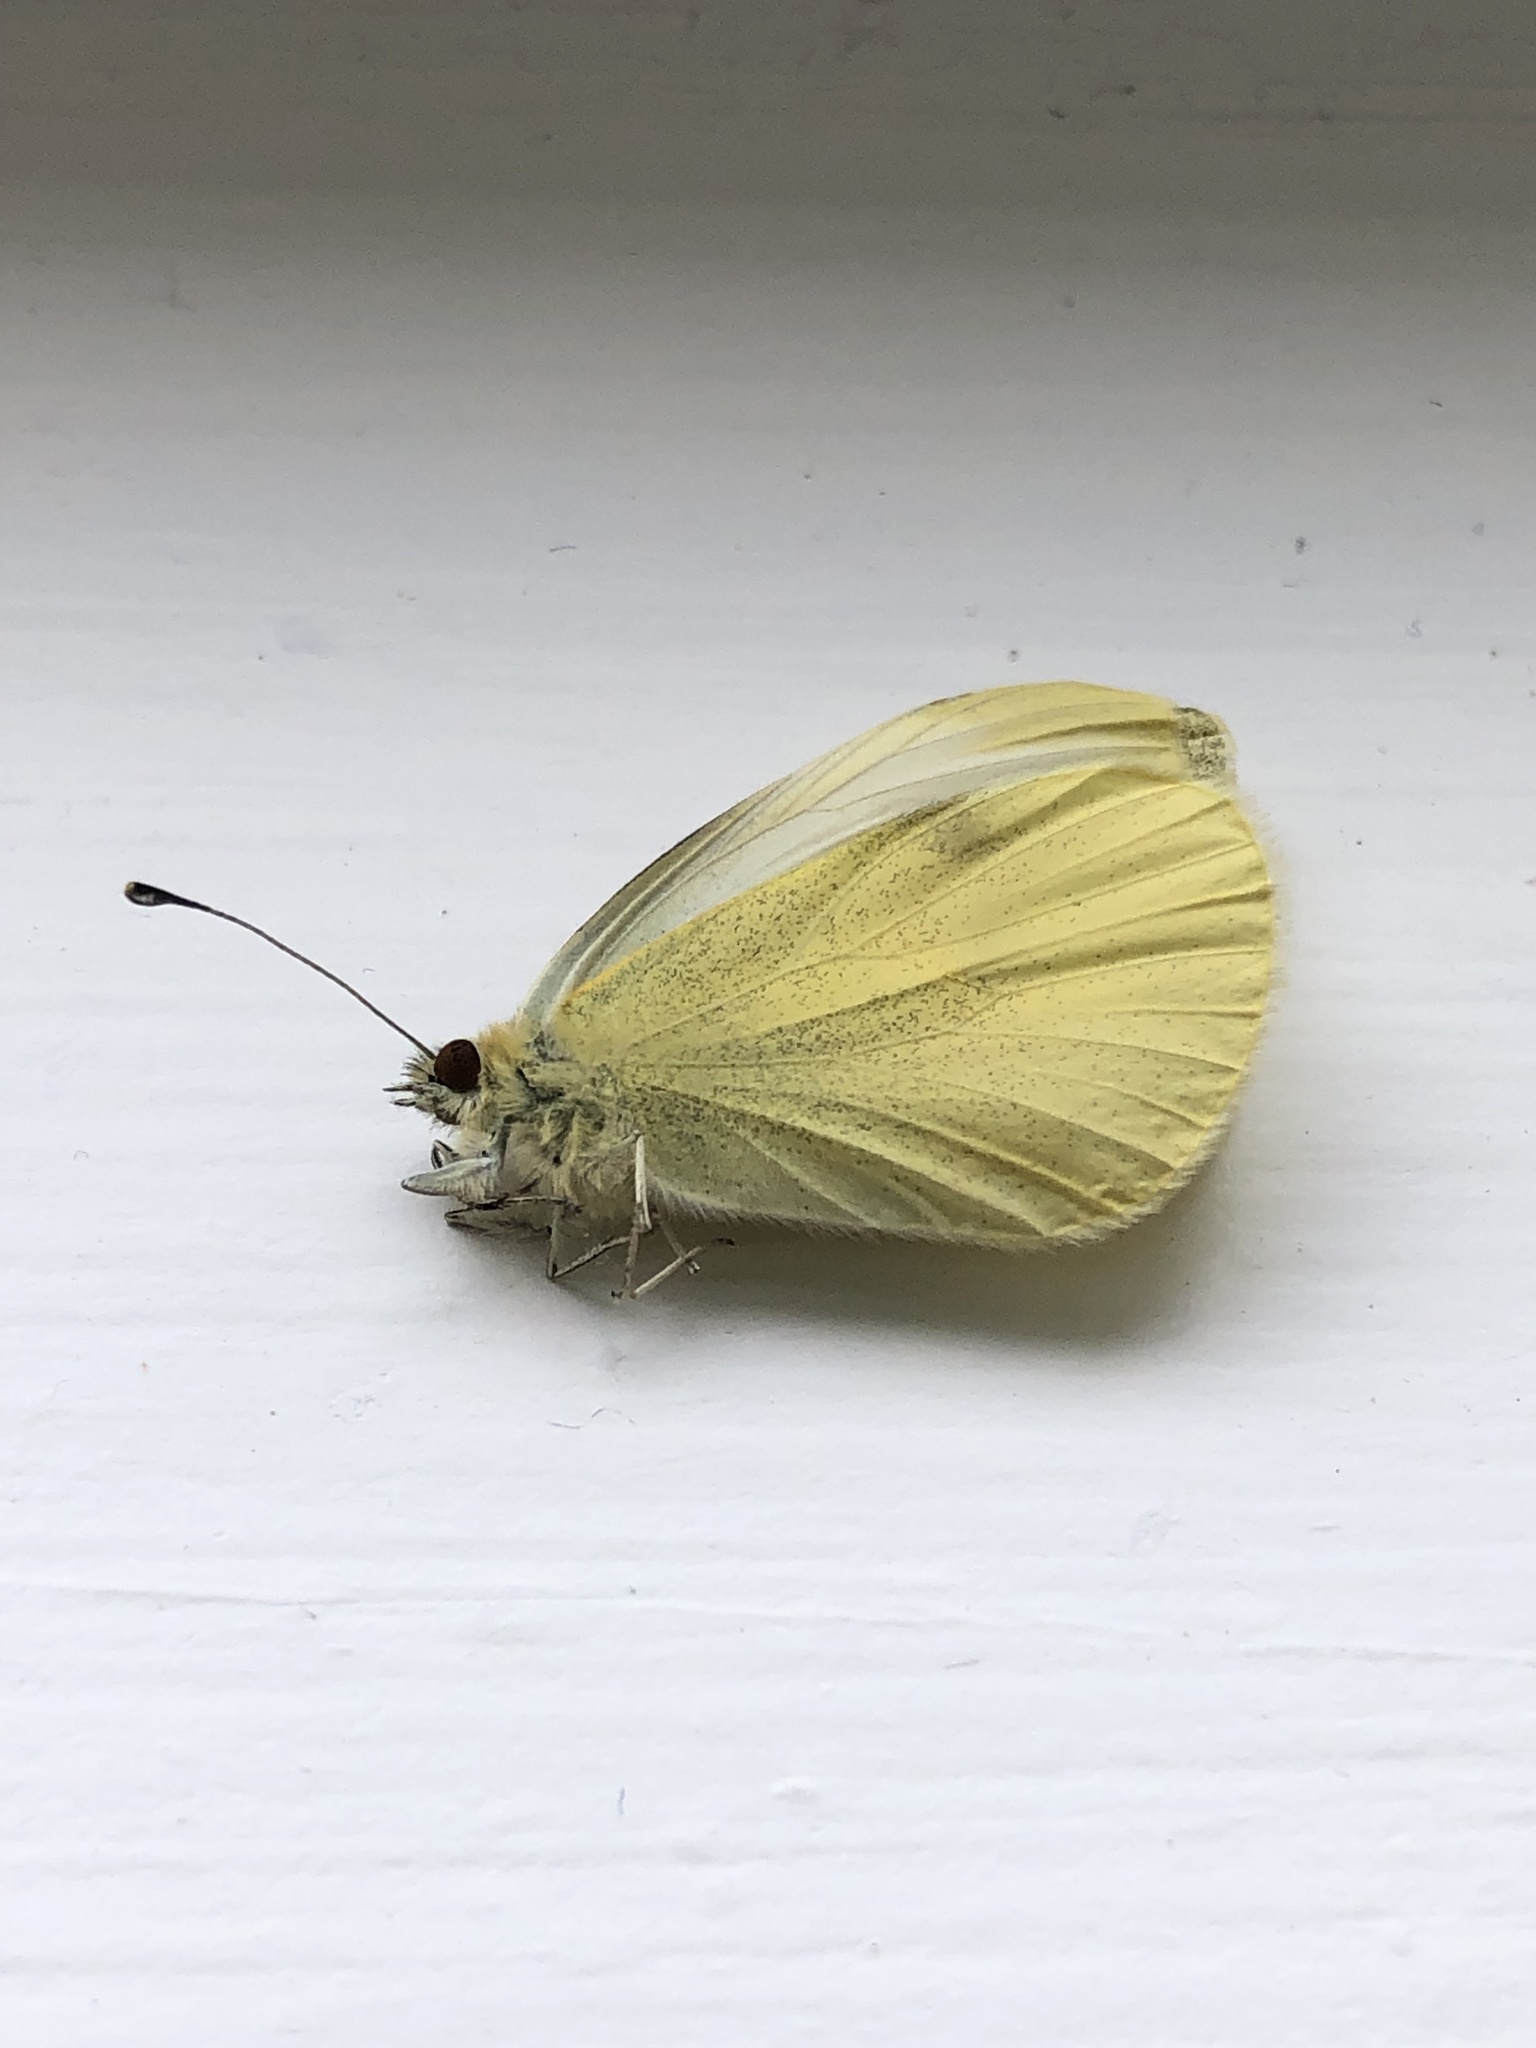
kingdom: Animalia
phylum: Arthropoda
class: Insecta
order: Lepidoptera
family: Pieridae
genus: Pieris
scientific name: Pieris rapae
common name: Small white
